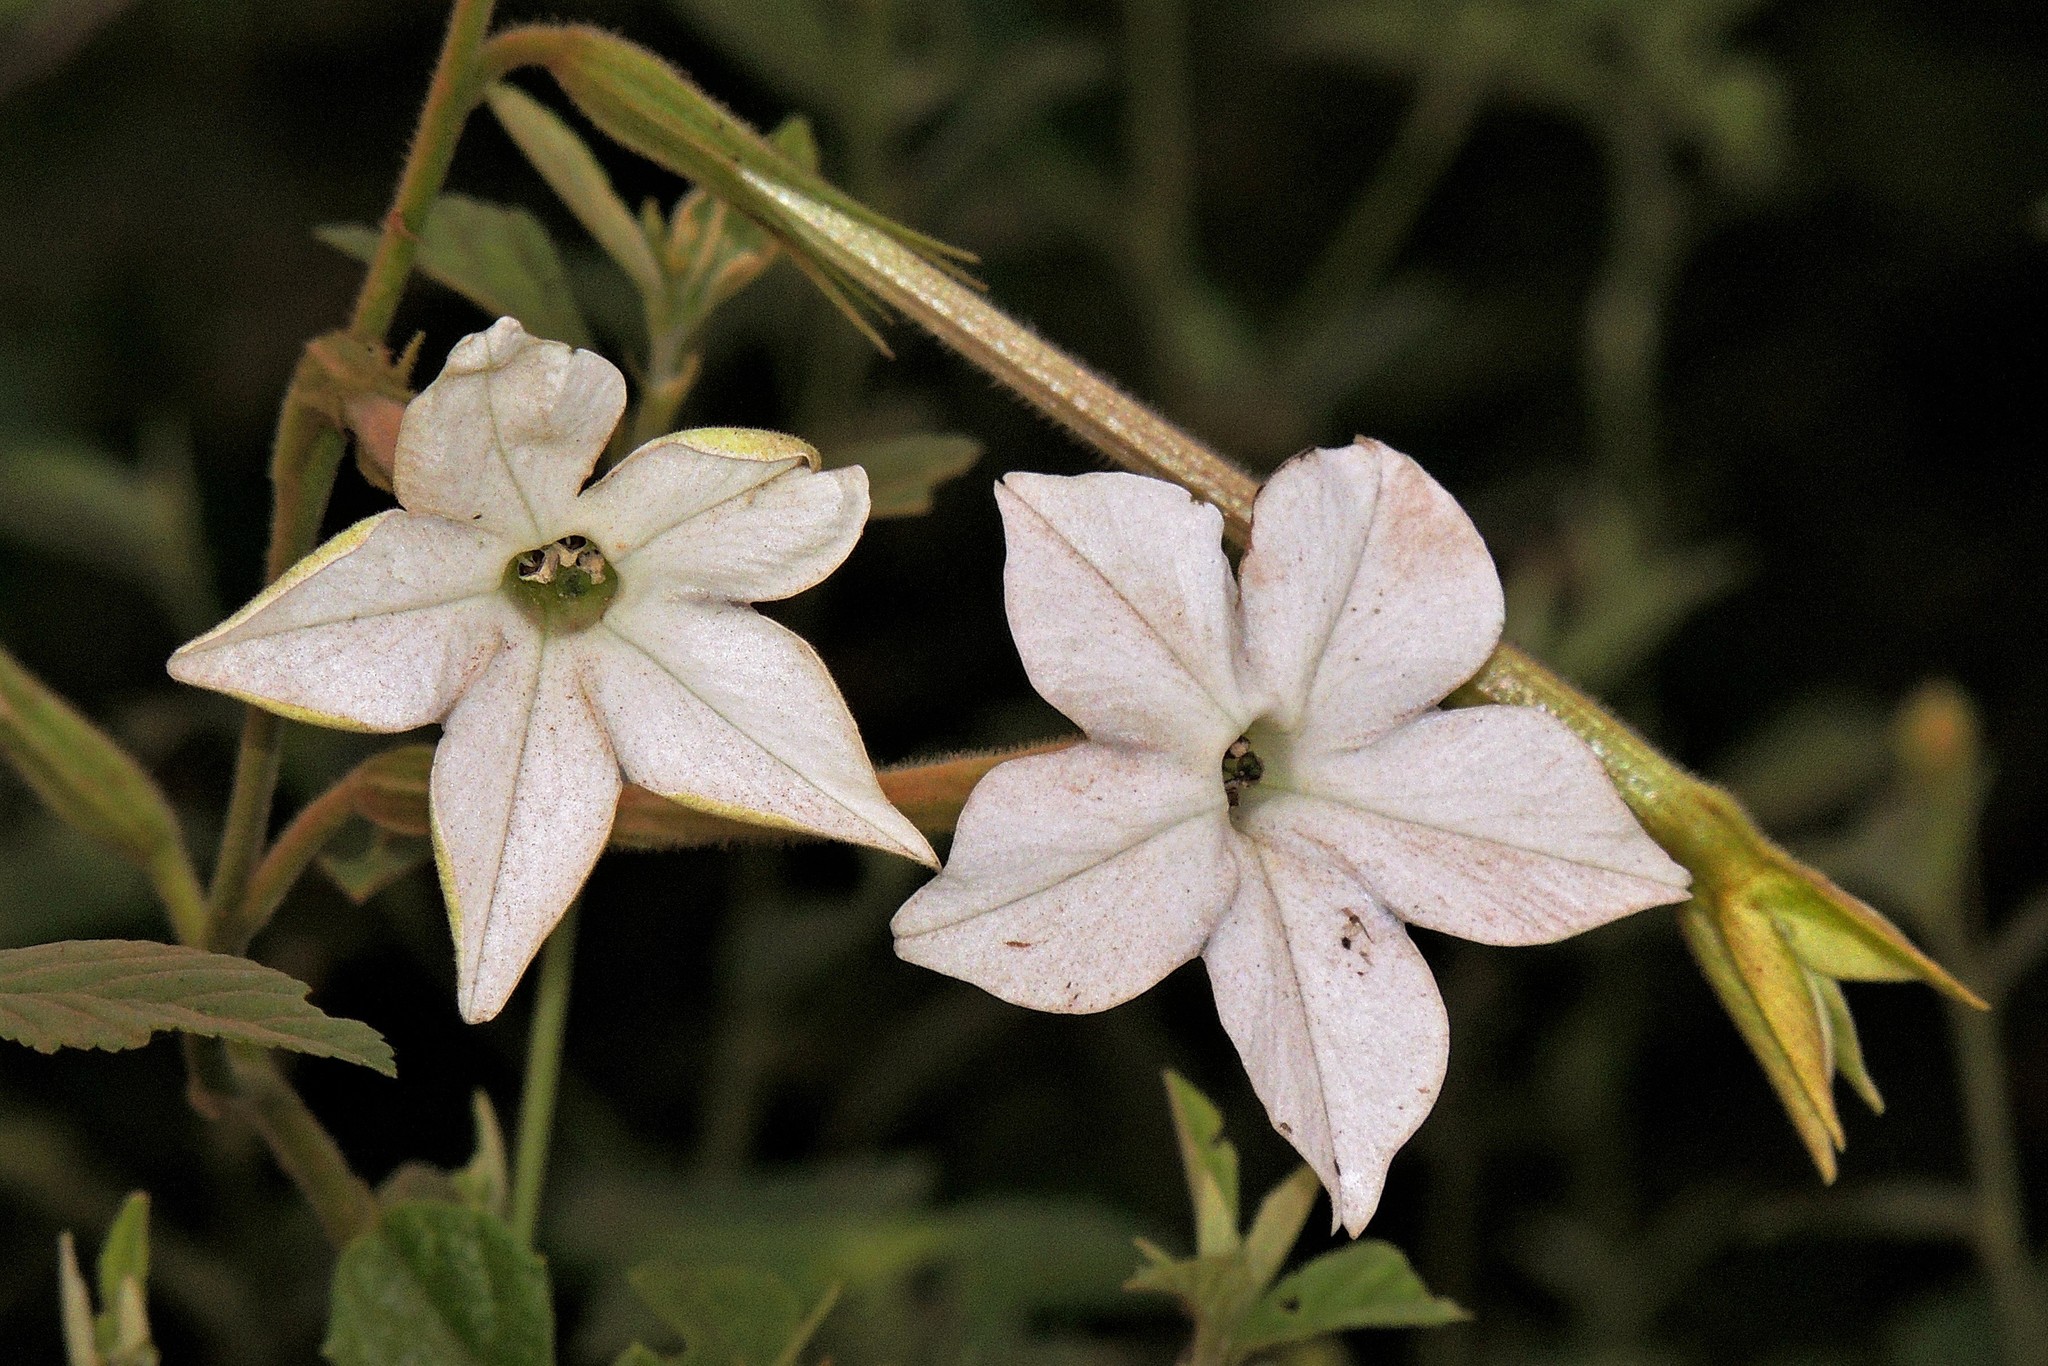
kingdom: Plantae
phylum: Tracheophyta
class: Magnoliopsida
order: Solanales
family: Solanaceae
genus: Nicotiana
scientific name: Nicotiana longiflora
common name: Long-flowered tobacco
